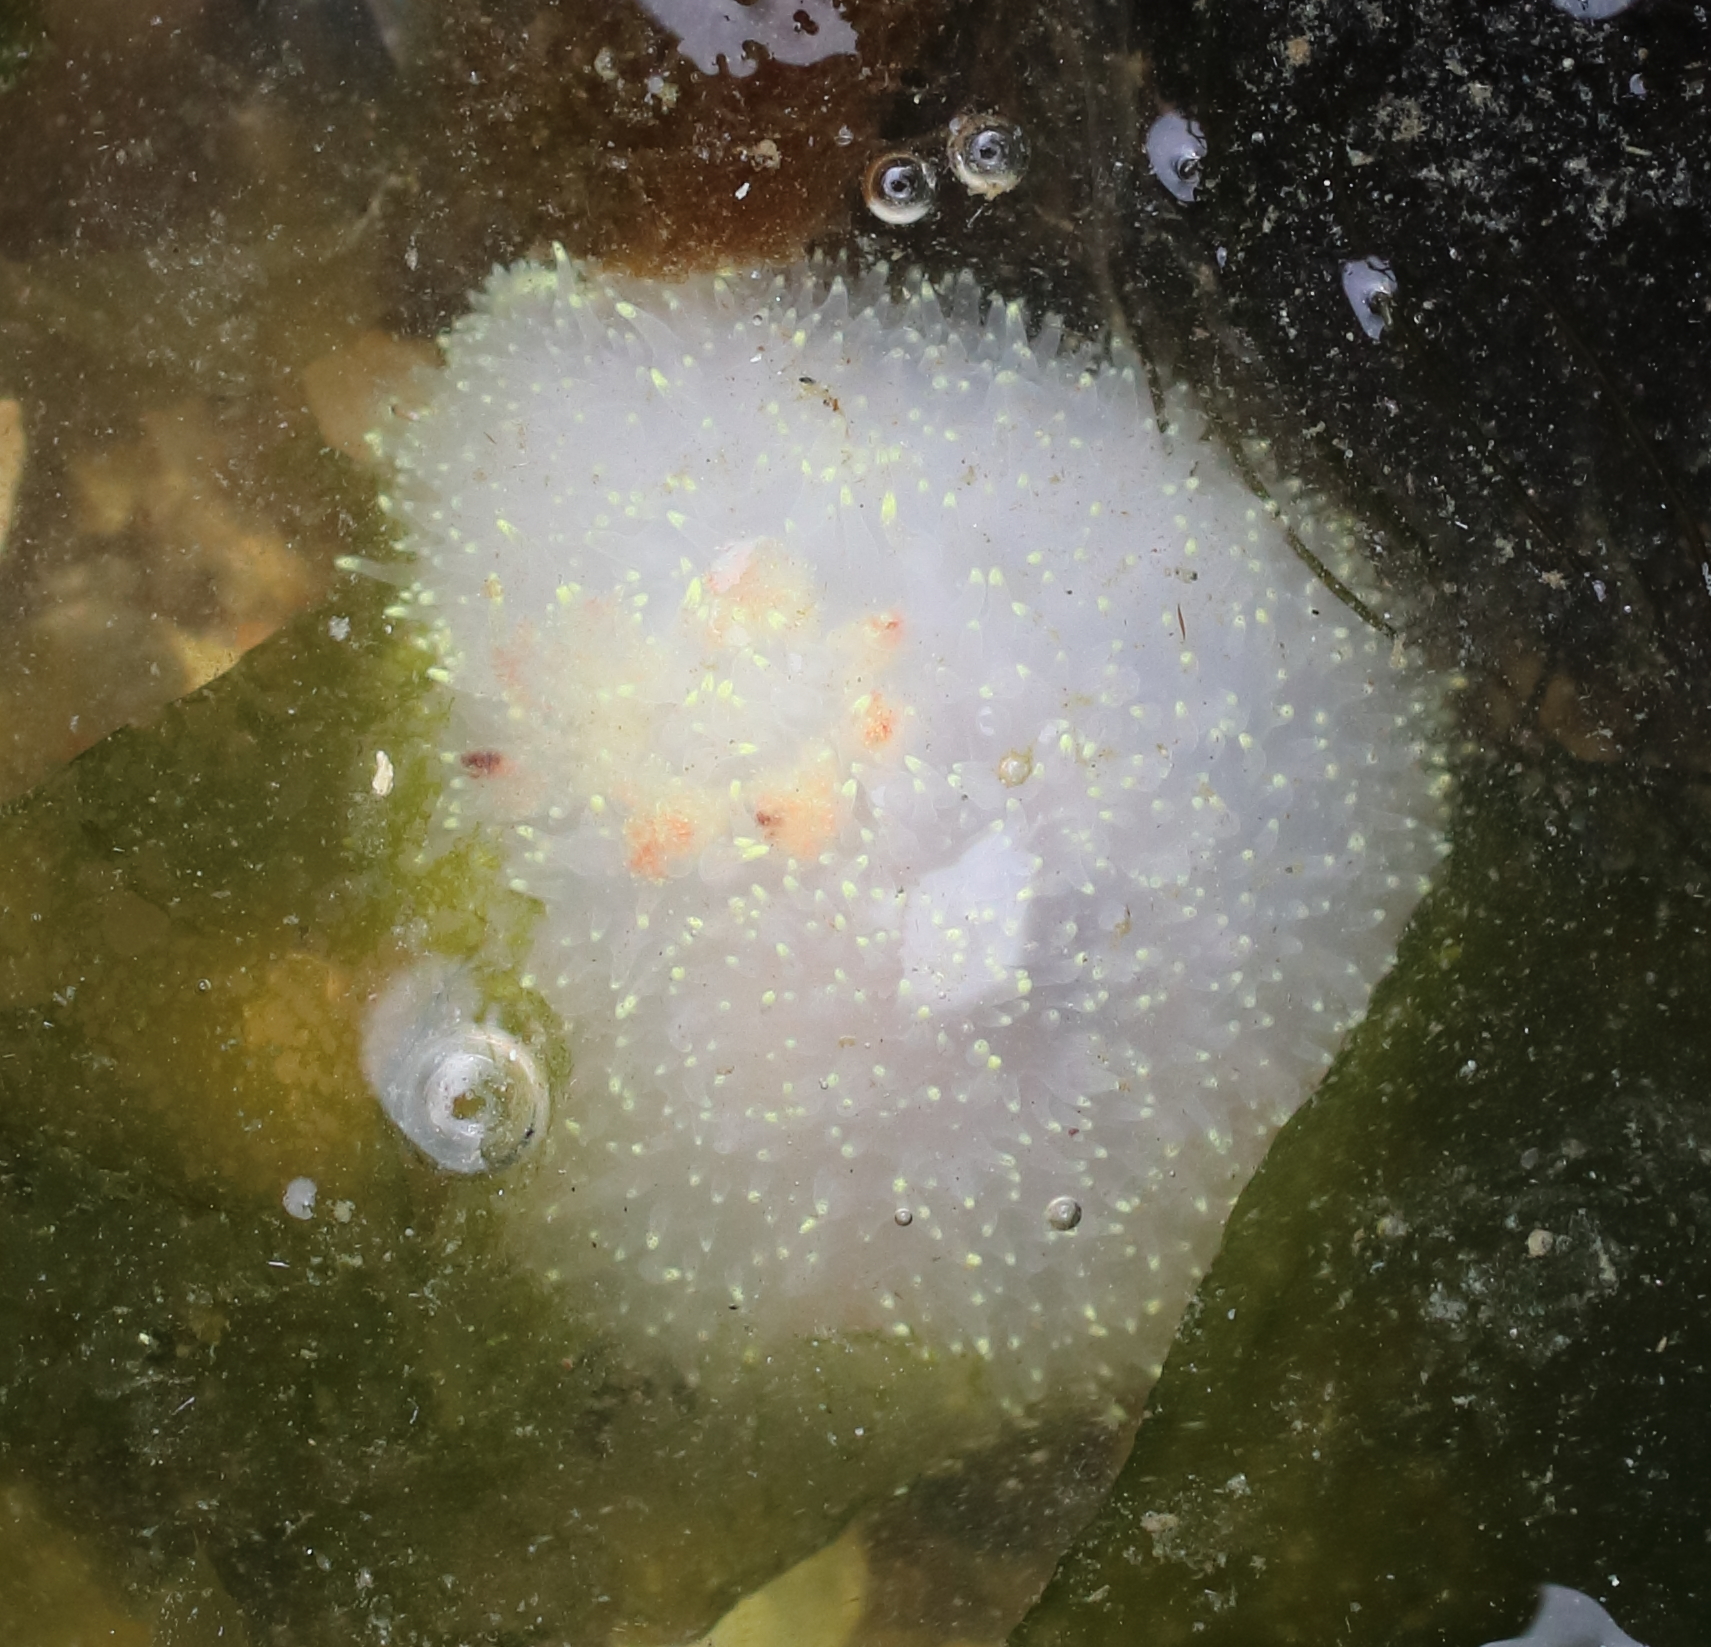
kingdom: Animalia
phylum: Mollusca
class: Gastropoda
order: Nudibranchia
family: Onchidorididae
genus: Acanthodoris
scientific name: Acanthodoris nanaimoensis
